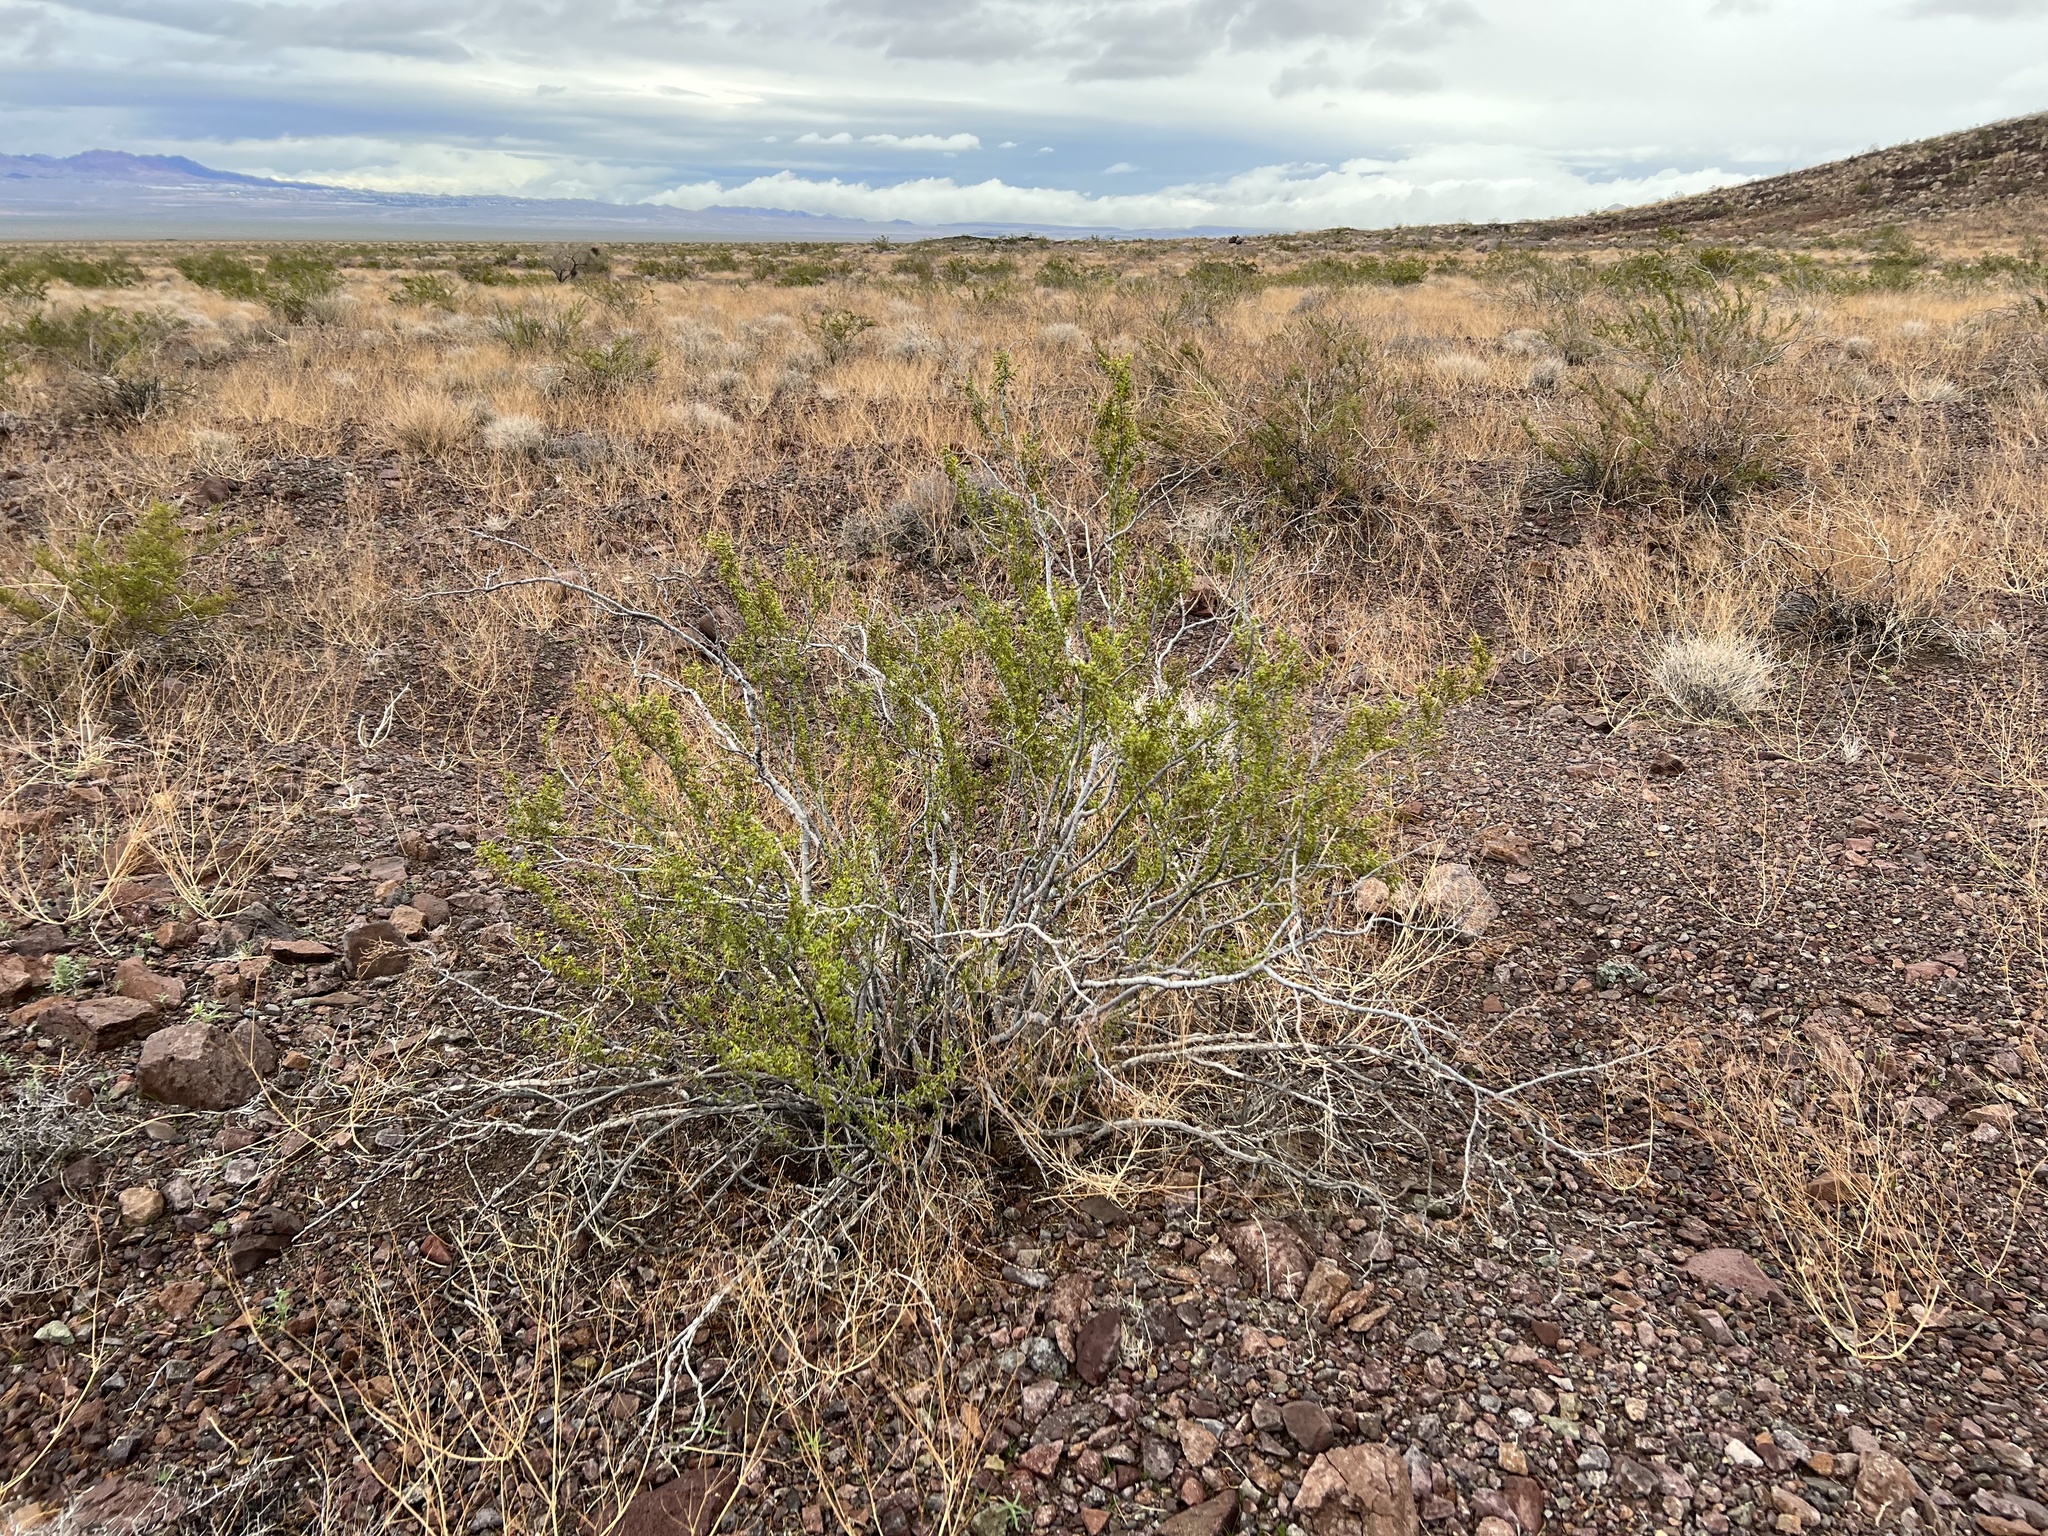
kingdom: Plantae
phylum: Tracheophyta
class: Magnoliopsida
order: Zygophyllales
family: Zygophyllaceae
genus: Larrea
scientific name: Larrea tridentata
